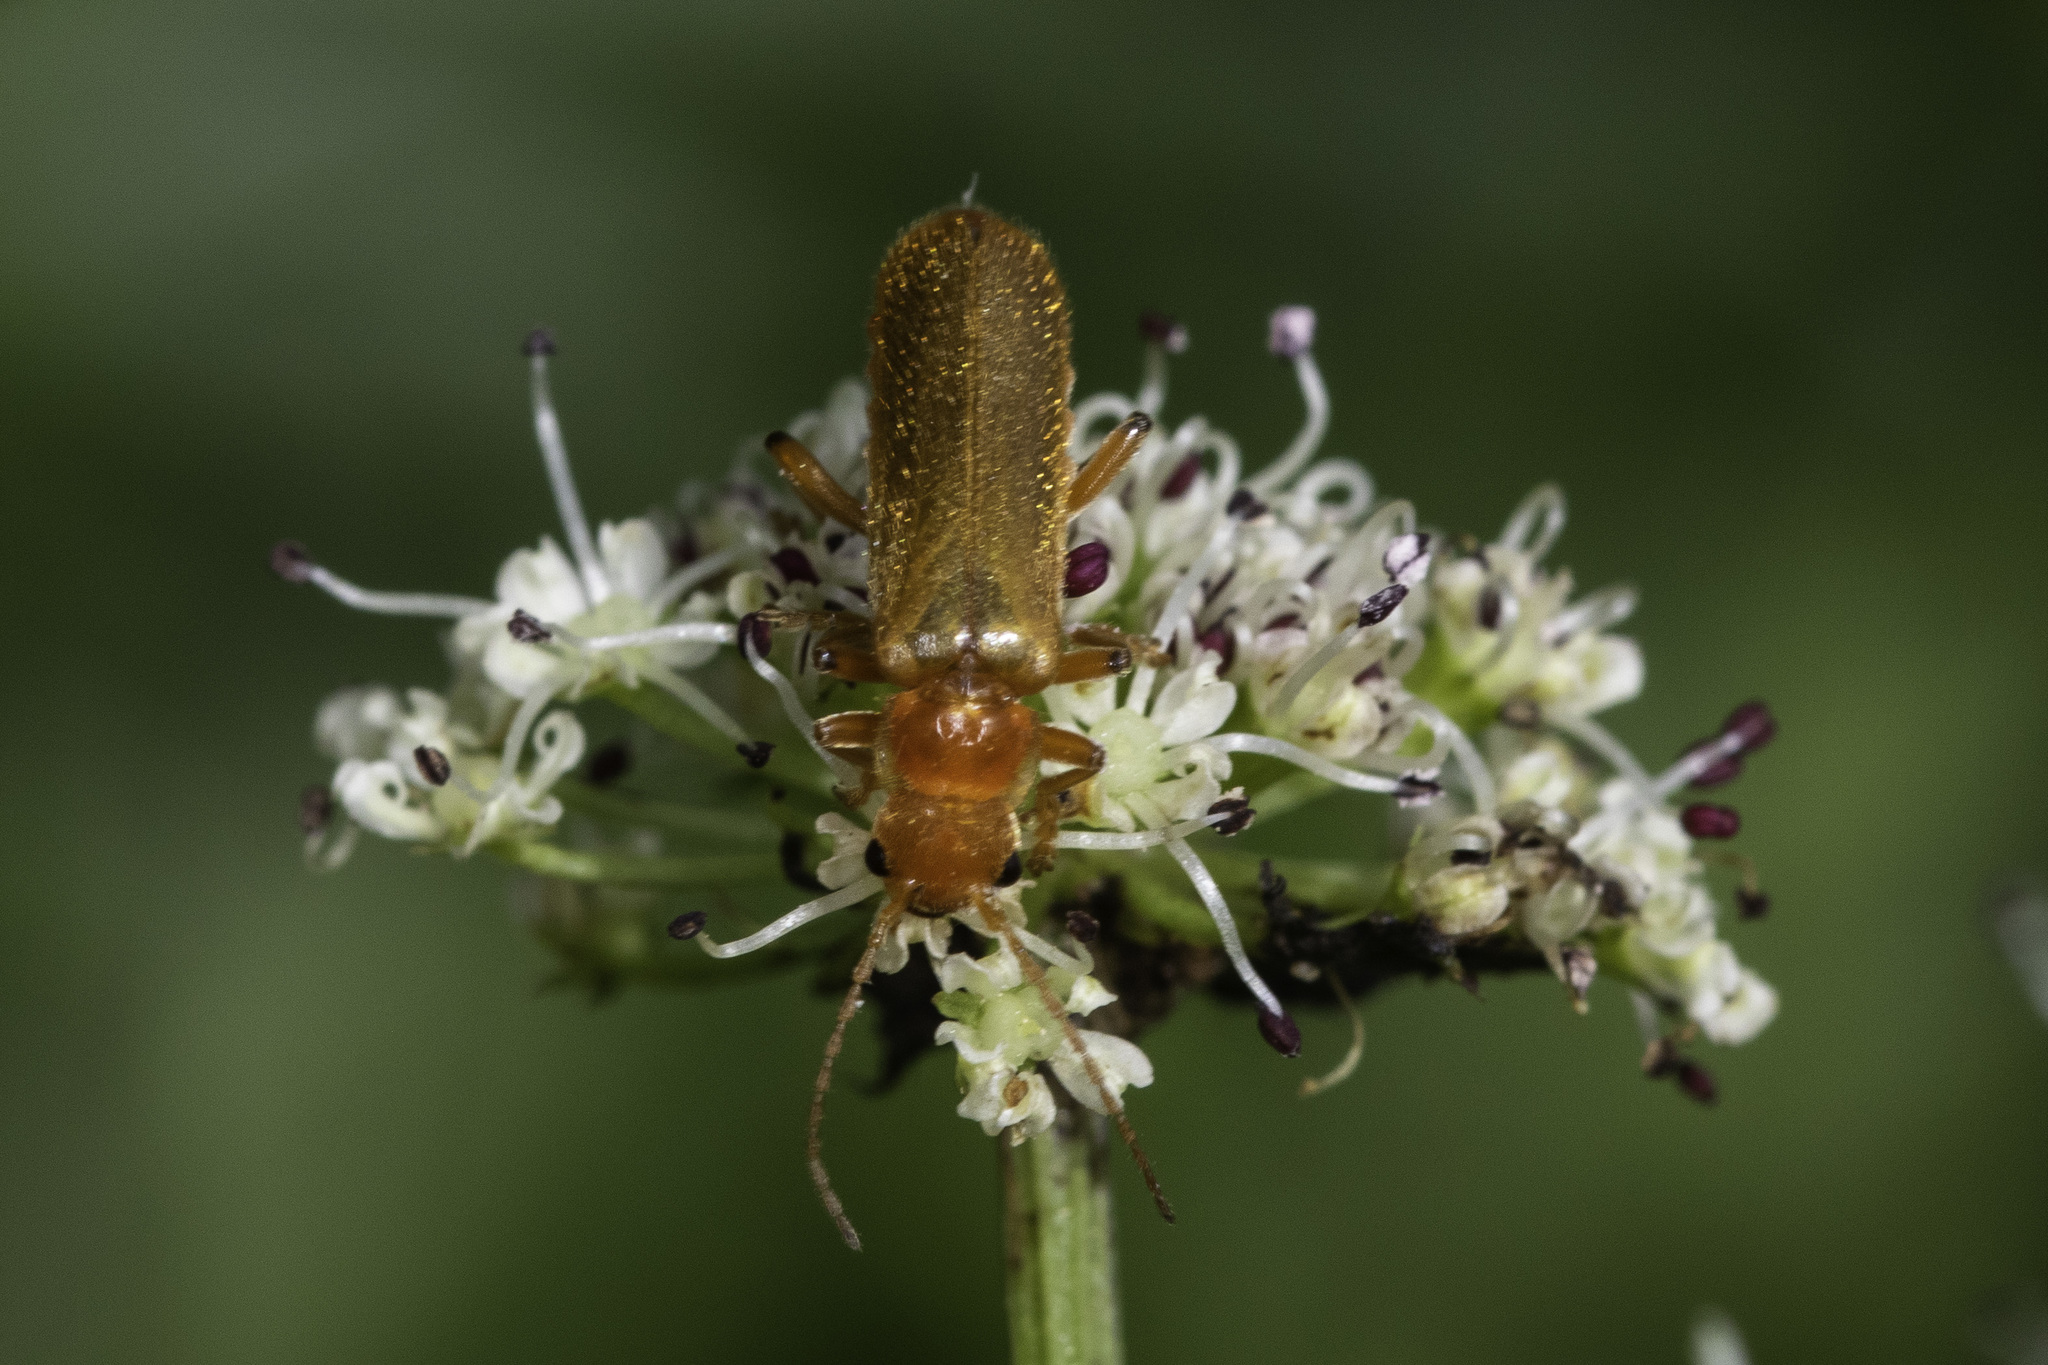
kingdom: Animalia
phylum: Arthropoda
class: Insecta
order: Coleoptera
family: Cantharidae
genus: Cantharis
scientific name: Cantharis cryptica
